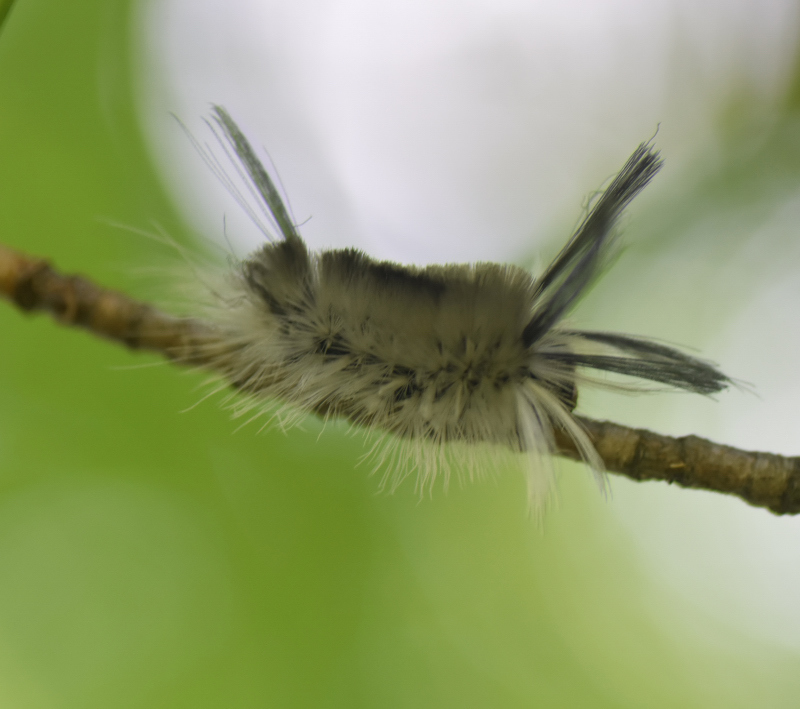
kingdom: Animalia
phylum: Arthropoda
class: Insecta
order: Lepidoptera
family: Erebidae
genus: Halysidota
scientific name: Halysidota tessellaris
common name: Banded tussock moth
